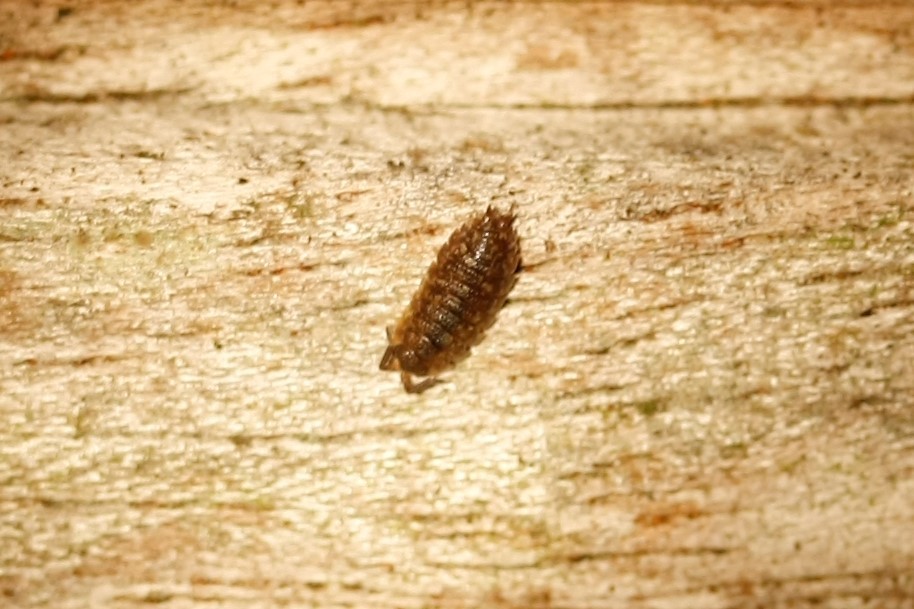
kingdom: Animalia
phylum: Arthropoda
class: Malacostraca
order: Isopoda
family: Porcellionidae
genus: Porcellio
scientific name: Porcellio scaber
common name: Common rough woodlouse
